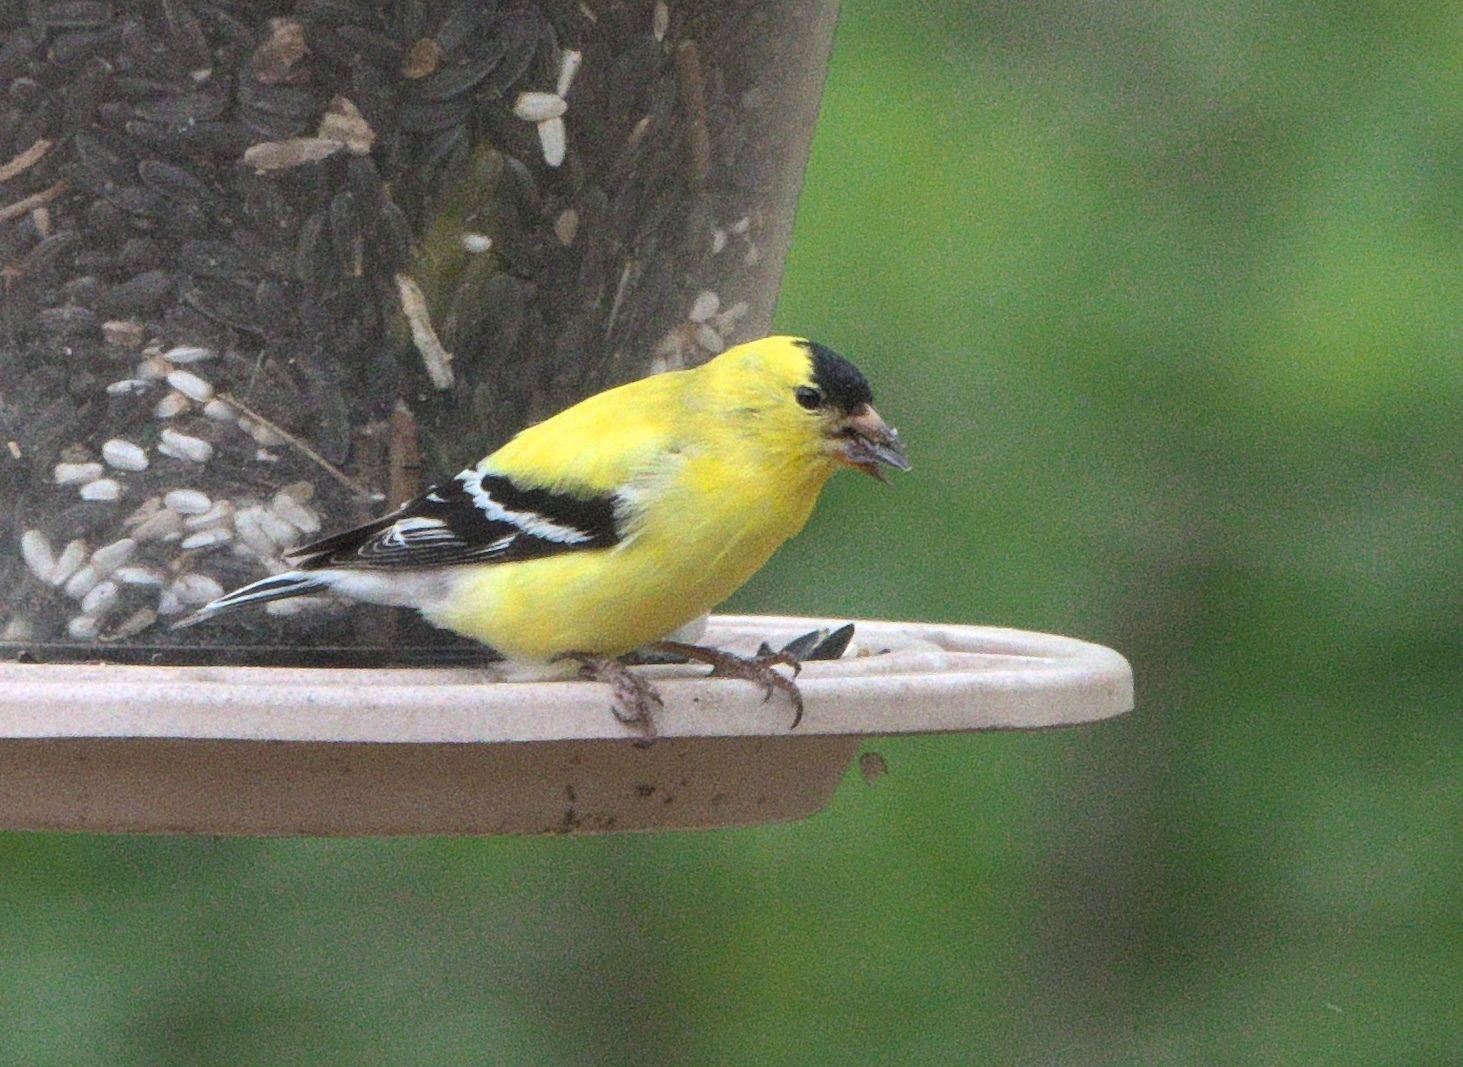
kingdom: Animalia
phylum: Chordata
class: Aves
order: Passeriformes
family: Fringillidae
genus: Spinus
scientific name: Spinus tristis
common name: American goldfinch
